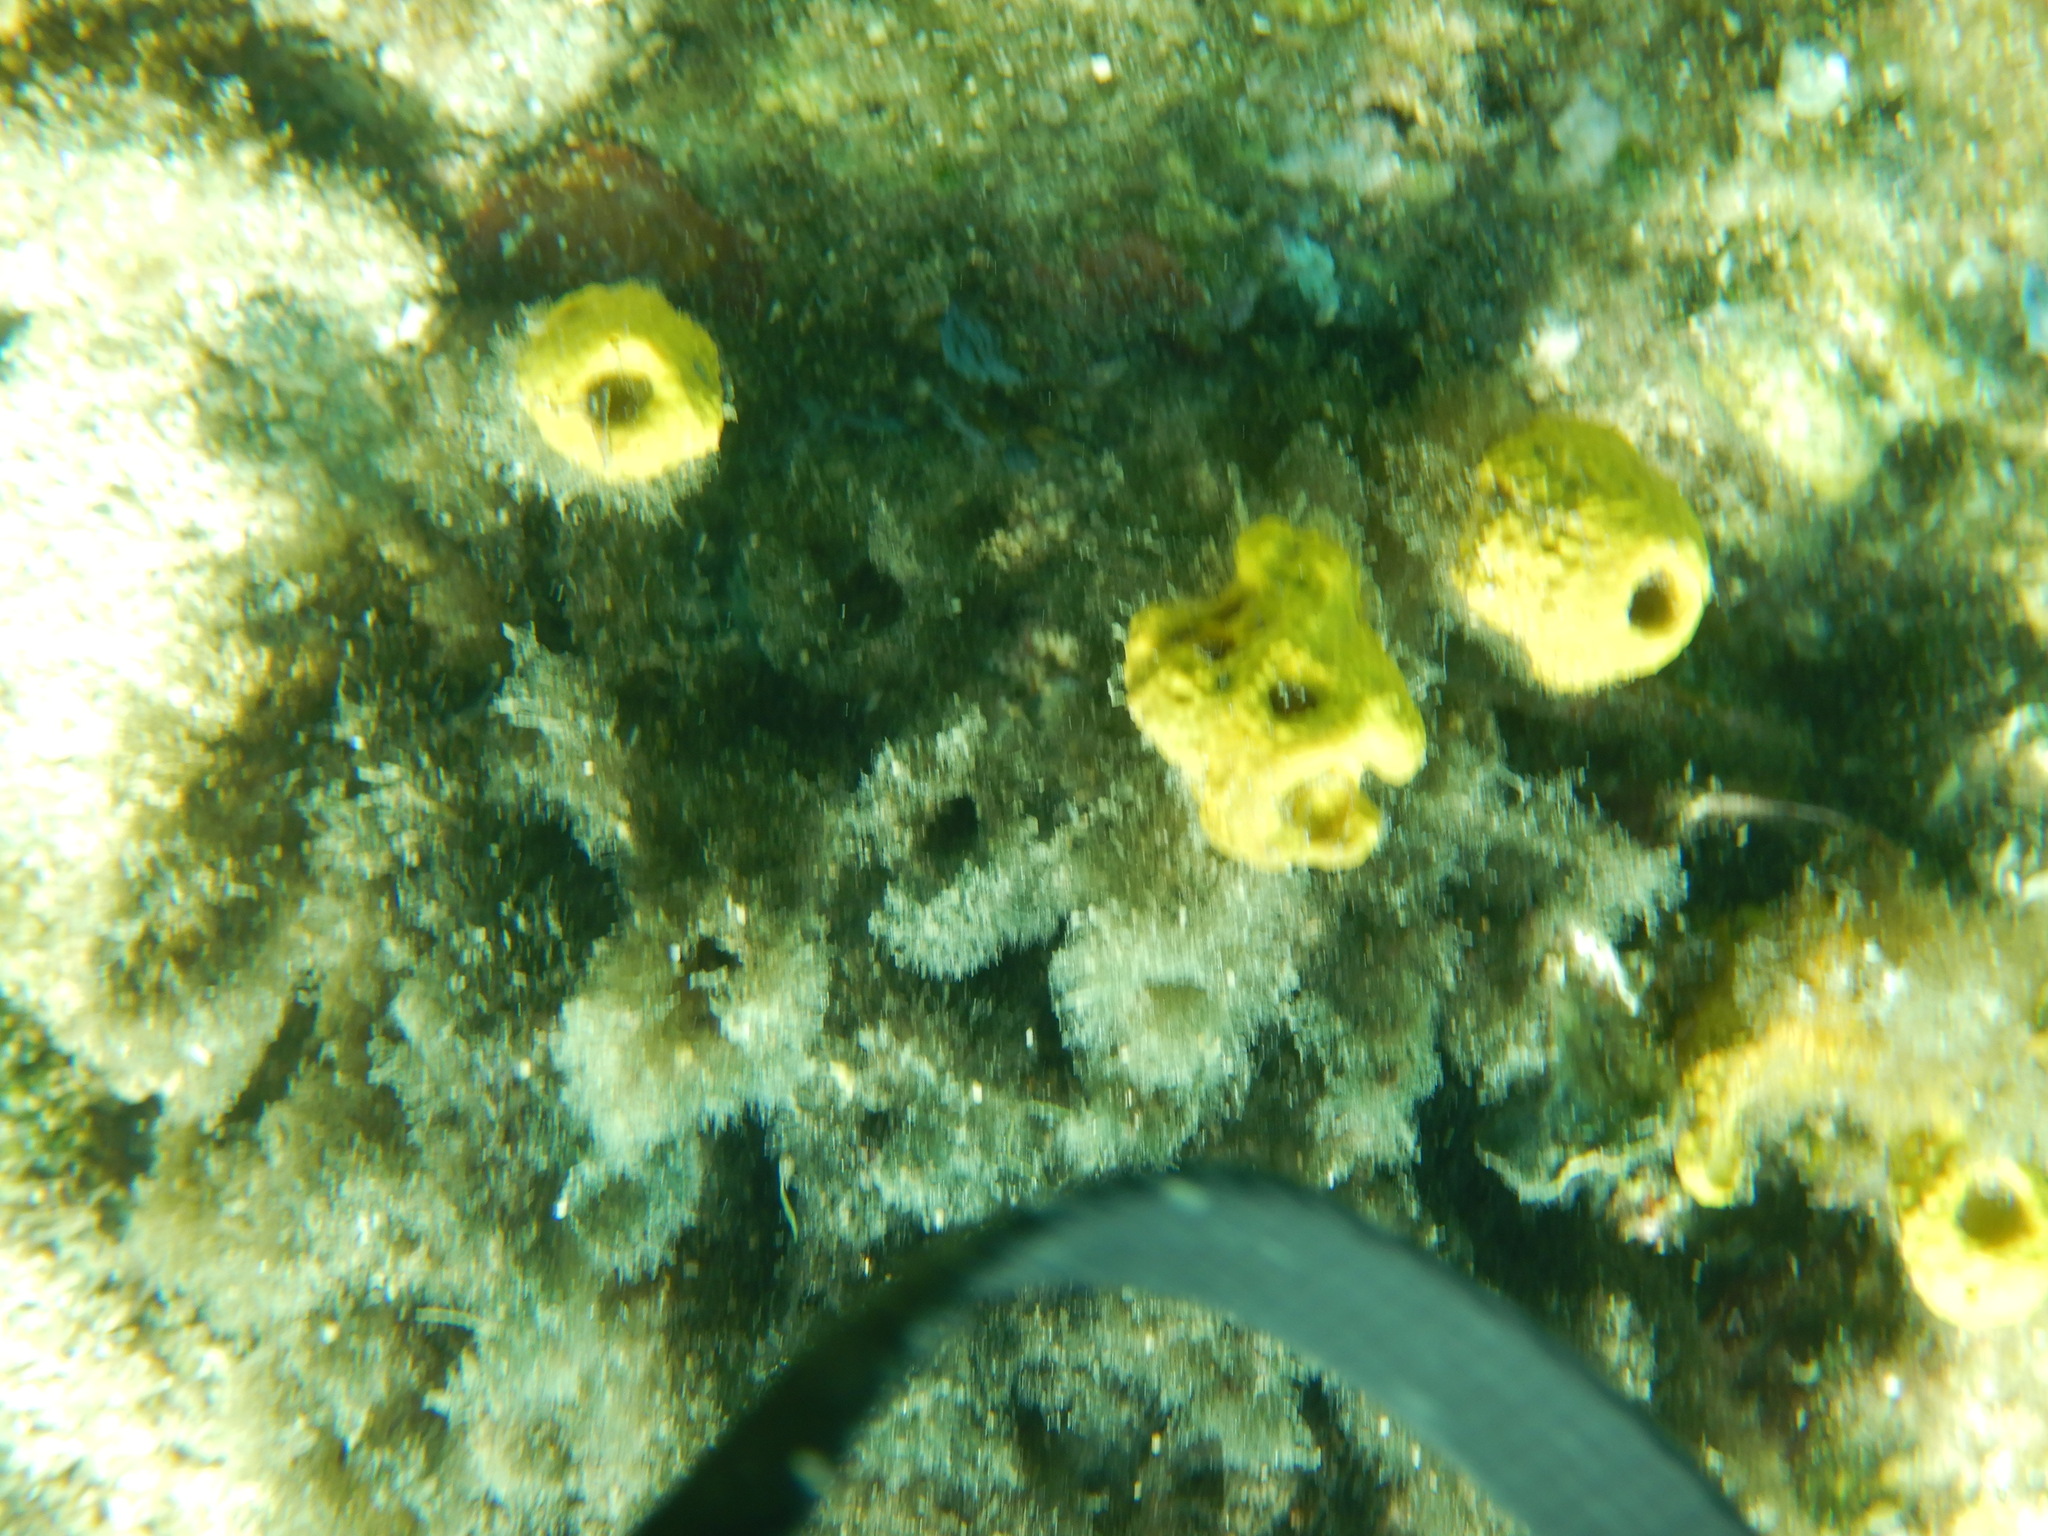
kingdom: Animalia
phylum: Porifera
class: Demospongiae
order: Verongiida
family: Aplysinidae
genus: Aplysina
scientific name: Aplysina aerophoba
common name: Aureate sponge
